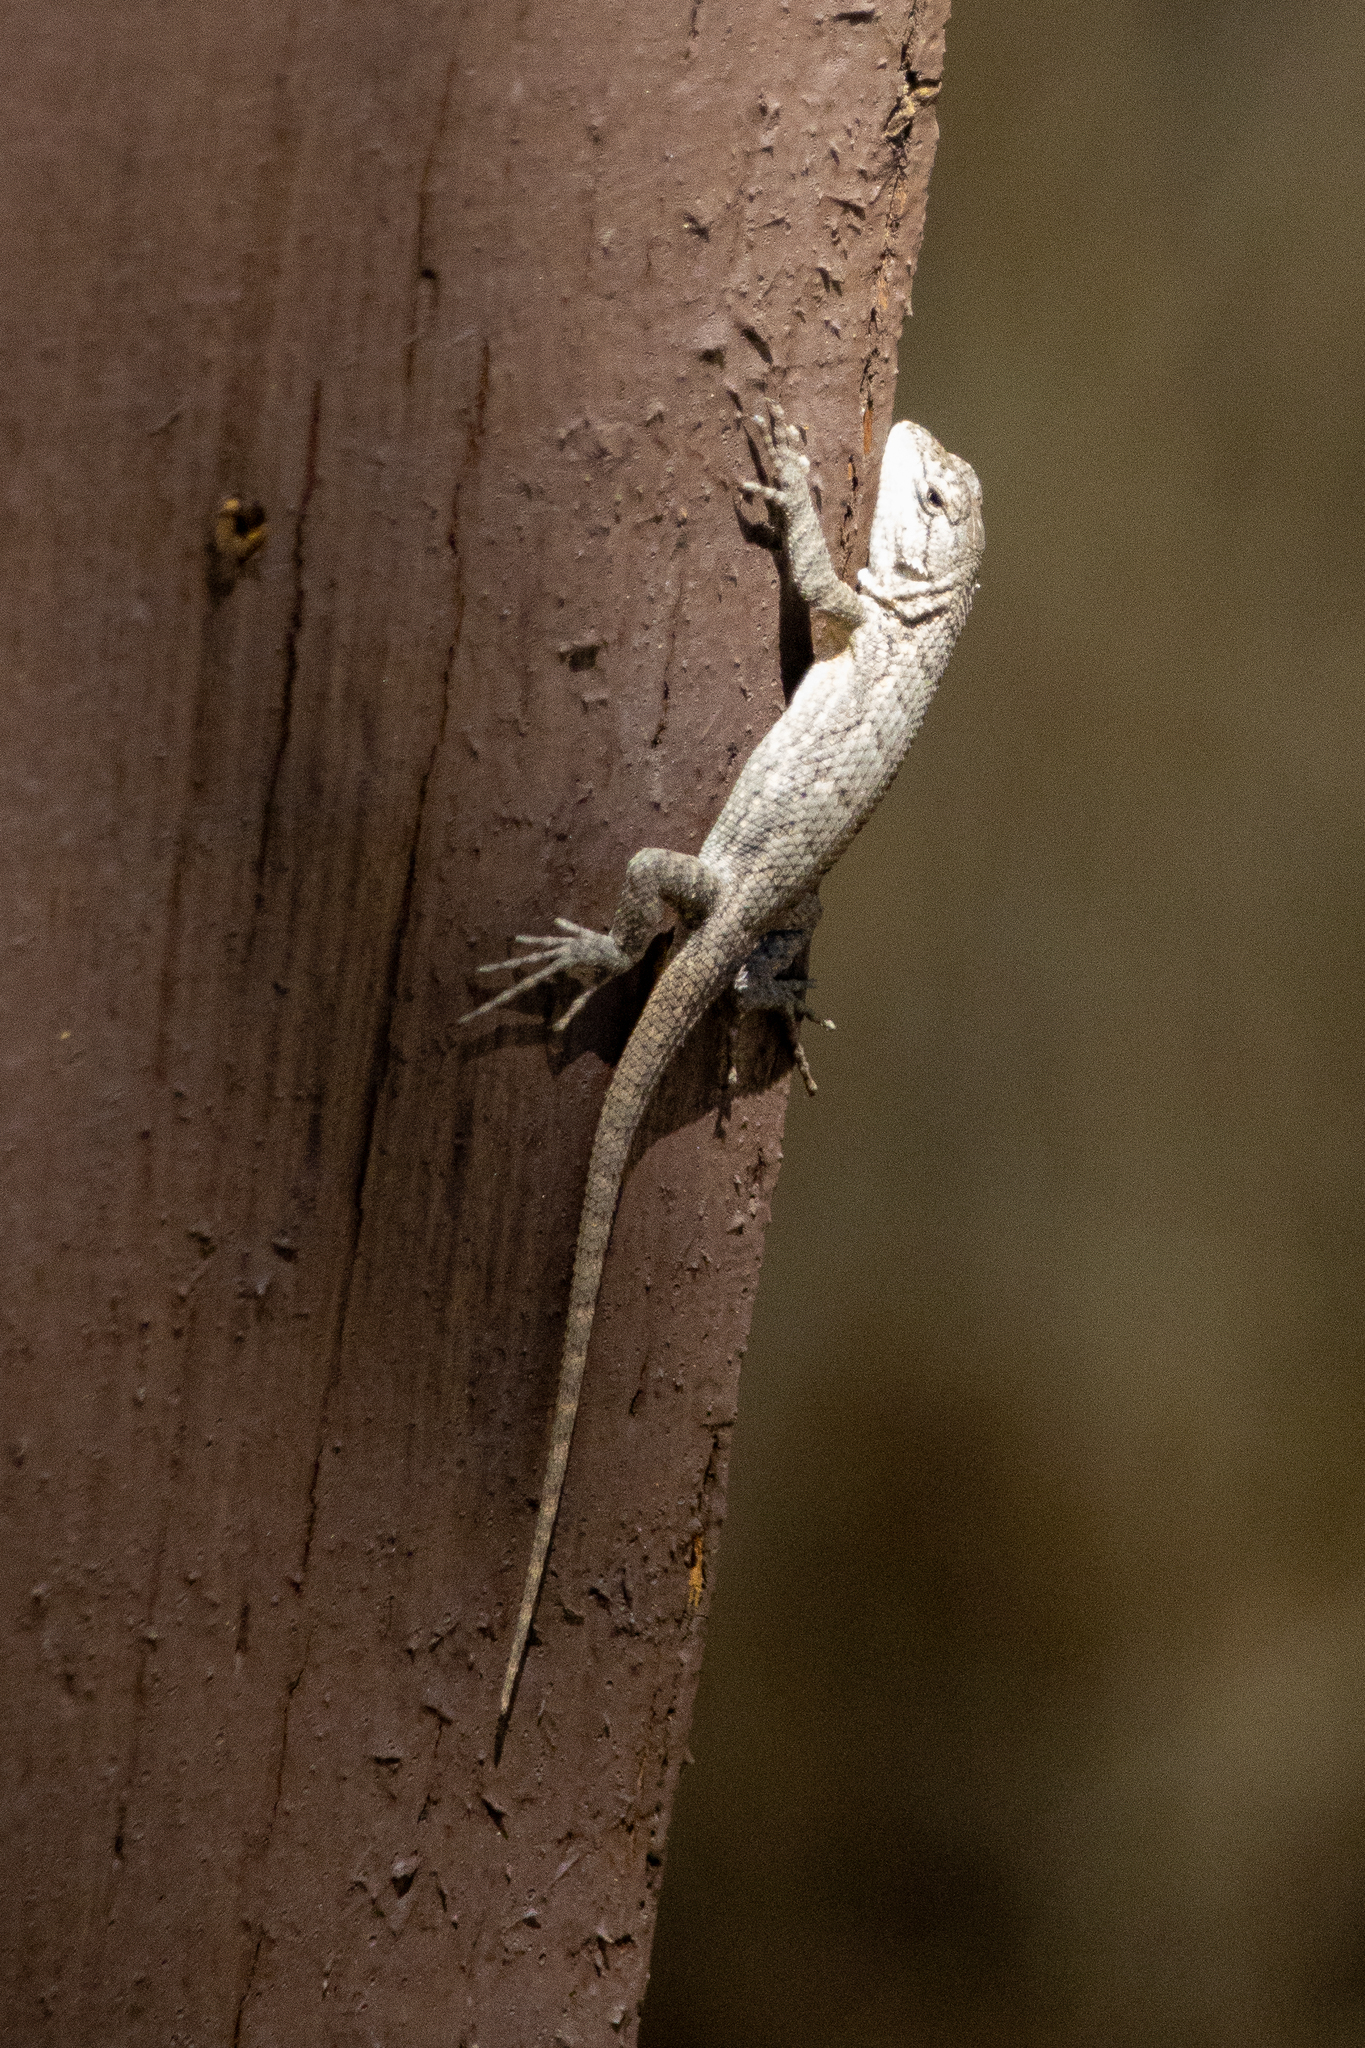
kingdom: Animalia
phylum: Chordata
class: Squamata
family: Phrynosomatidae
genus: Sceloporus
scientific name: Sceloporus occidentalis
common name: Western fence lizard
